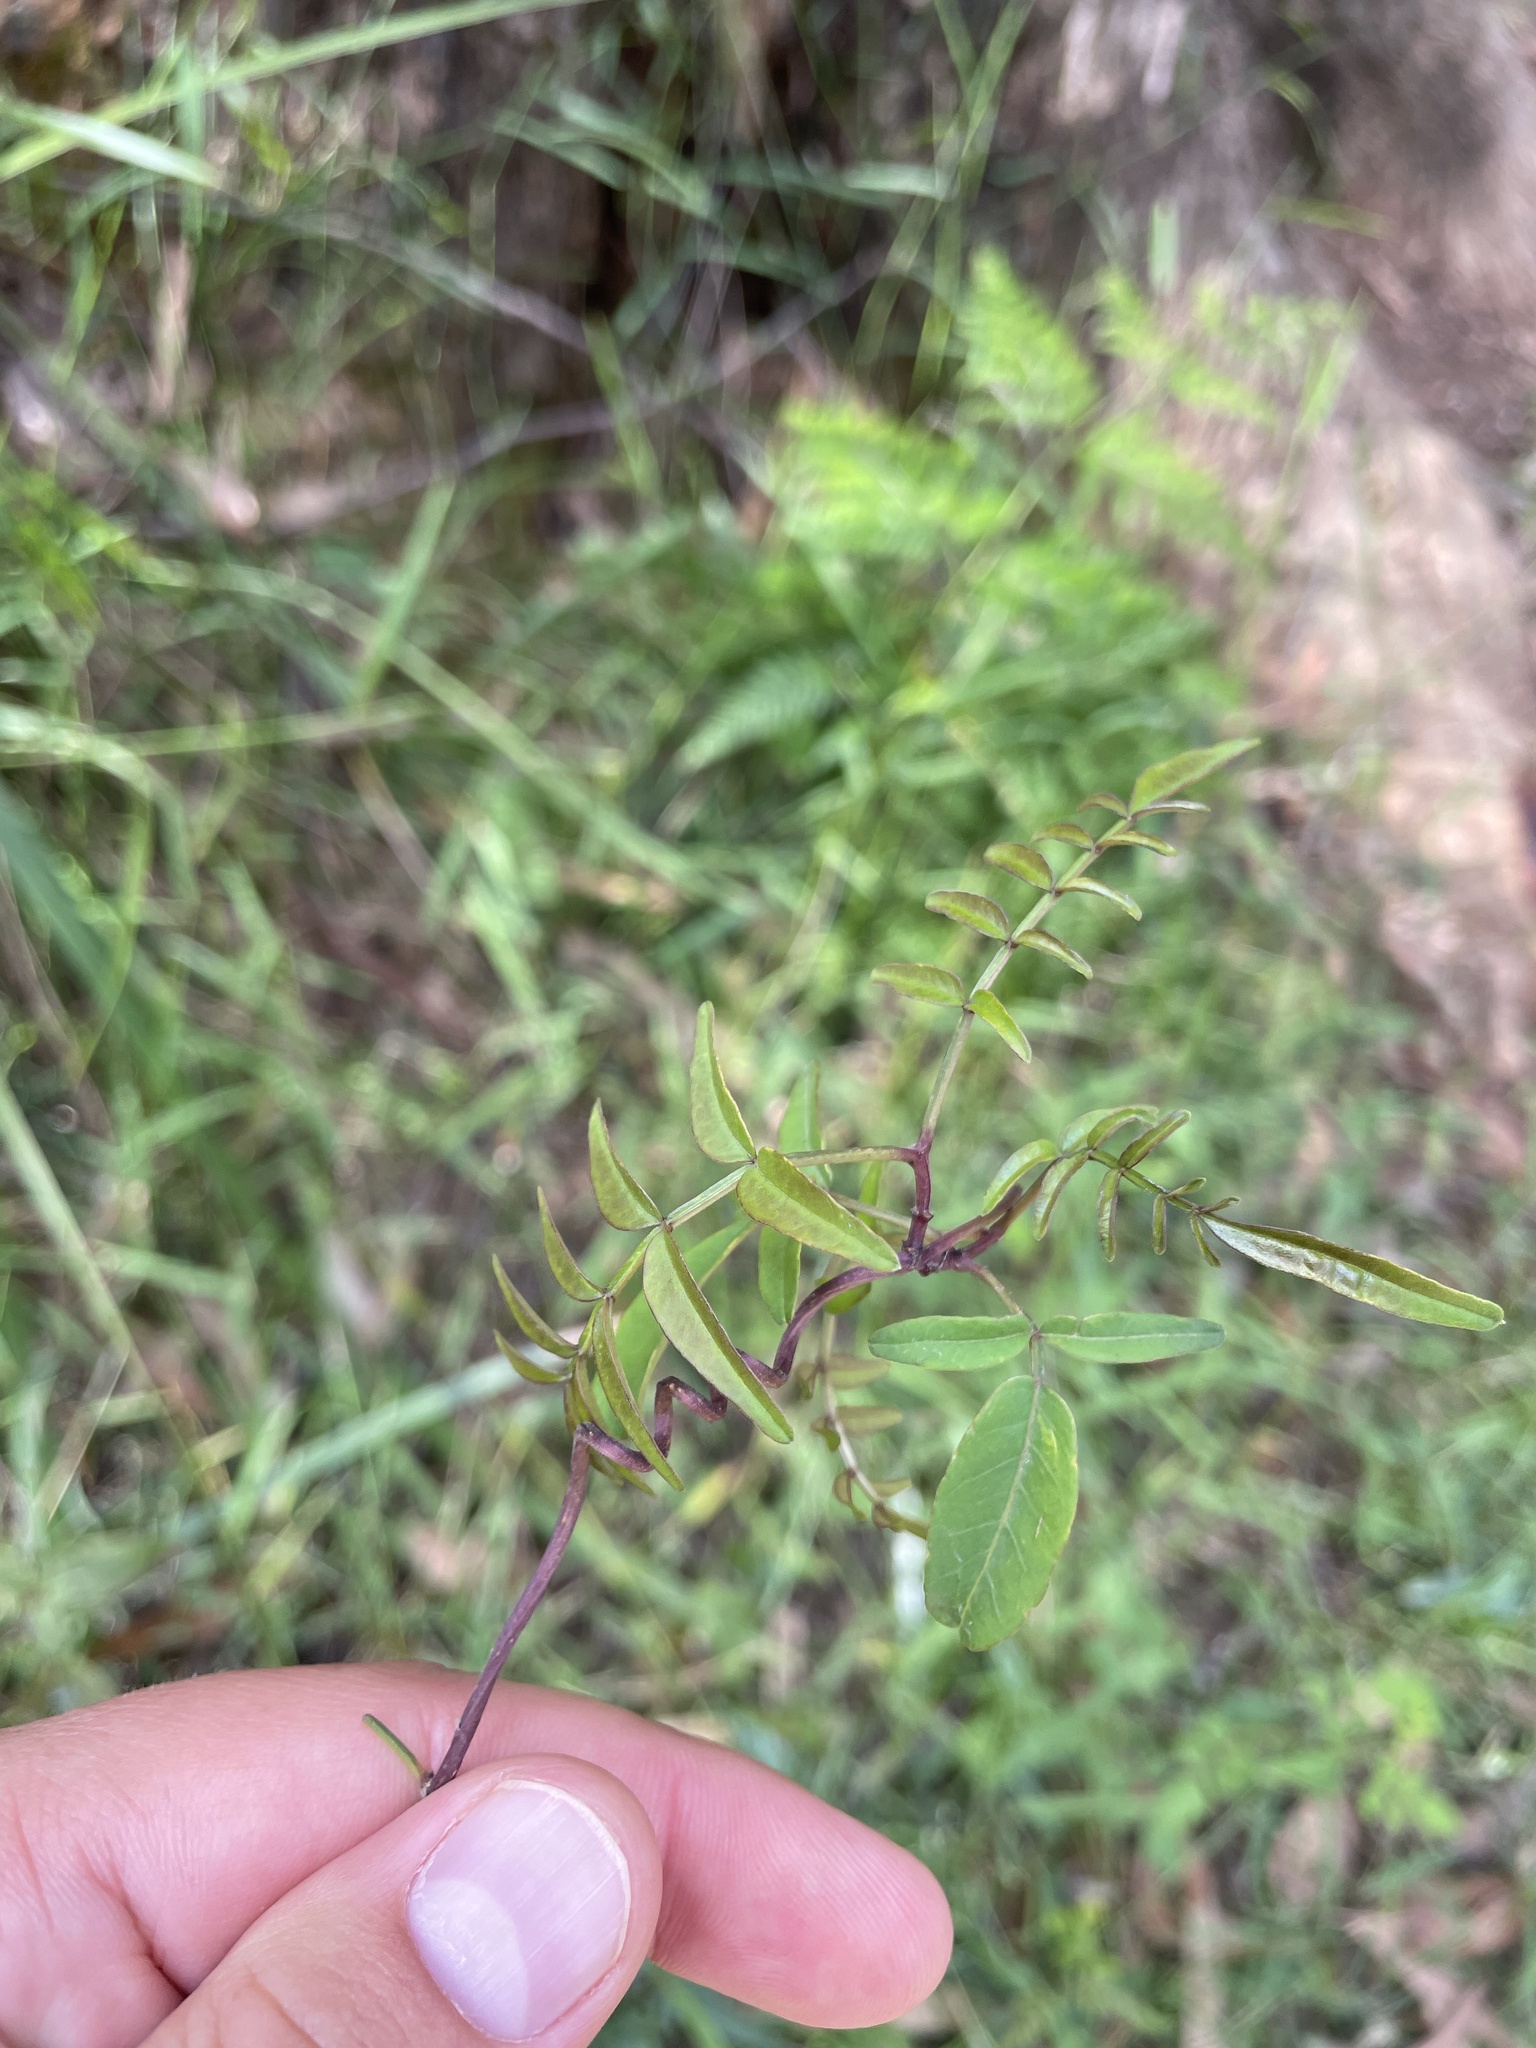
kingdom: Plantae
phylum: Tracheophyta
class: Magnoliopsida
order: Lamiales
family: Bignoniaceae
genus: Pandorea
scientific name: Pandorea pandorana
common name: Wonga-wonga-vine
